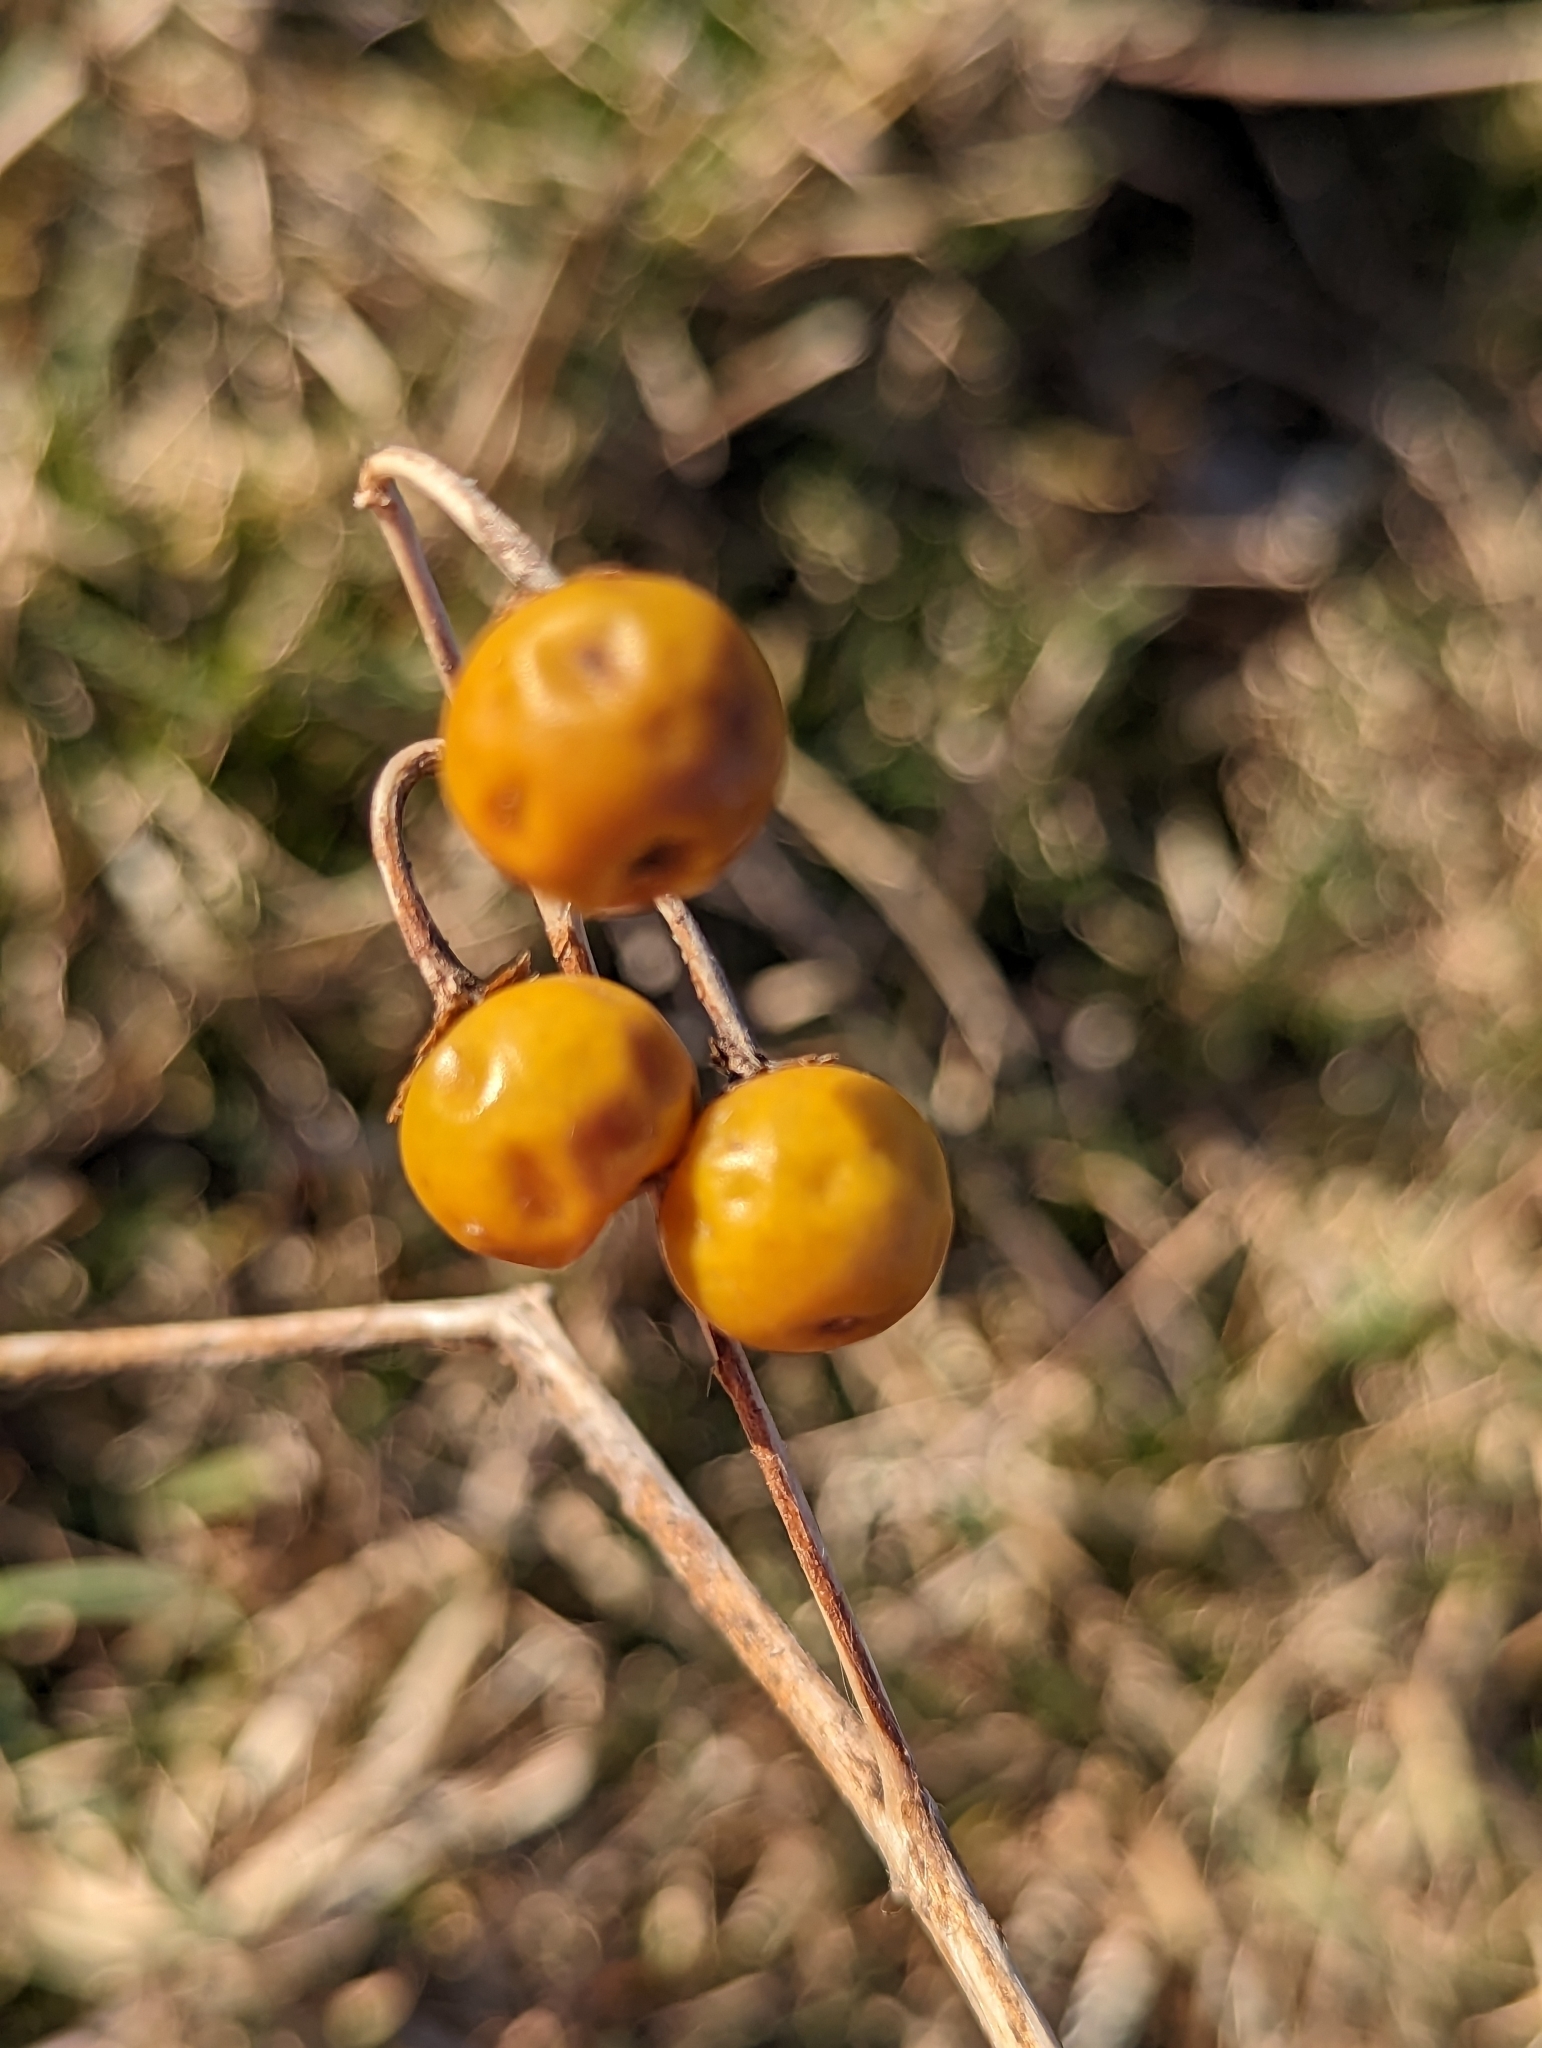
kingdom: Plantae
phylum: Tracheophyta
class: Magnoliopsida
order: Solanales
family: Solanaceae
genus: Solanum
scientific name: Solanum carolinense
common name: Horse-nettle
